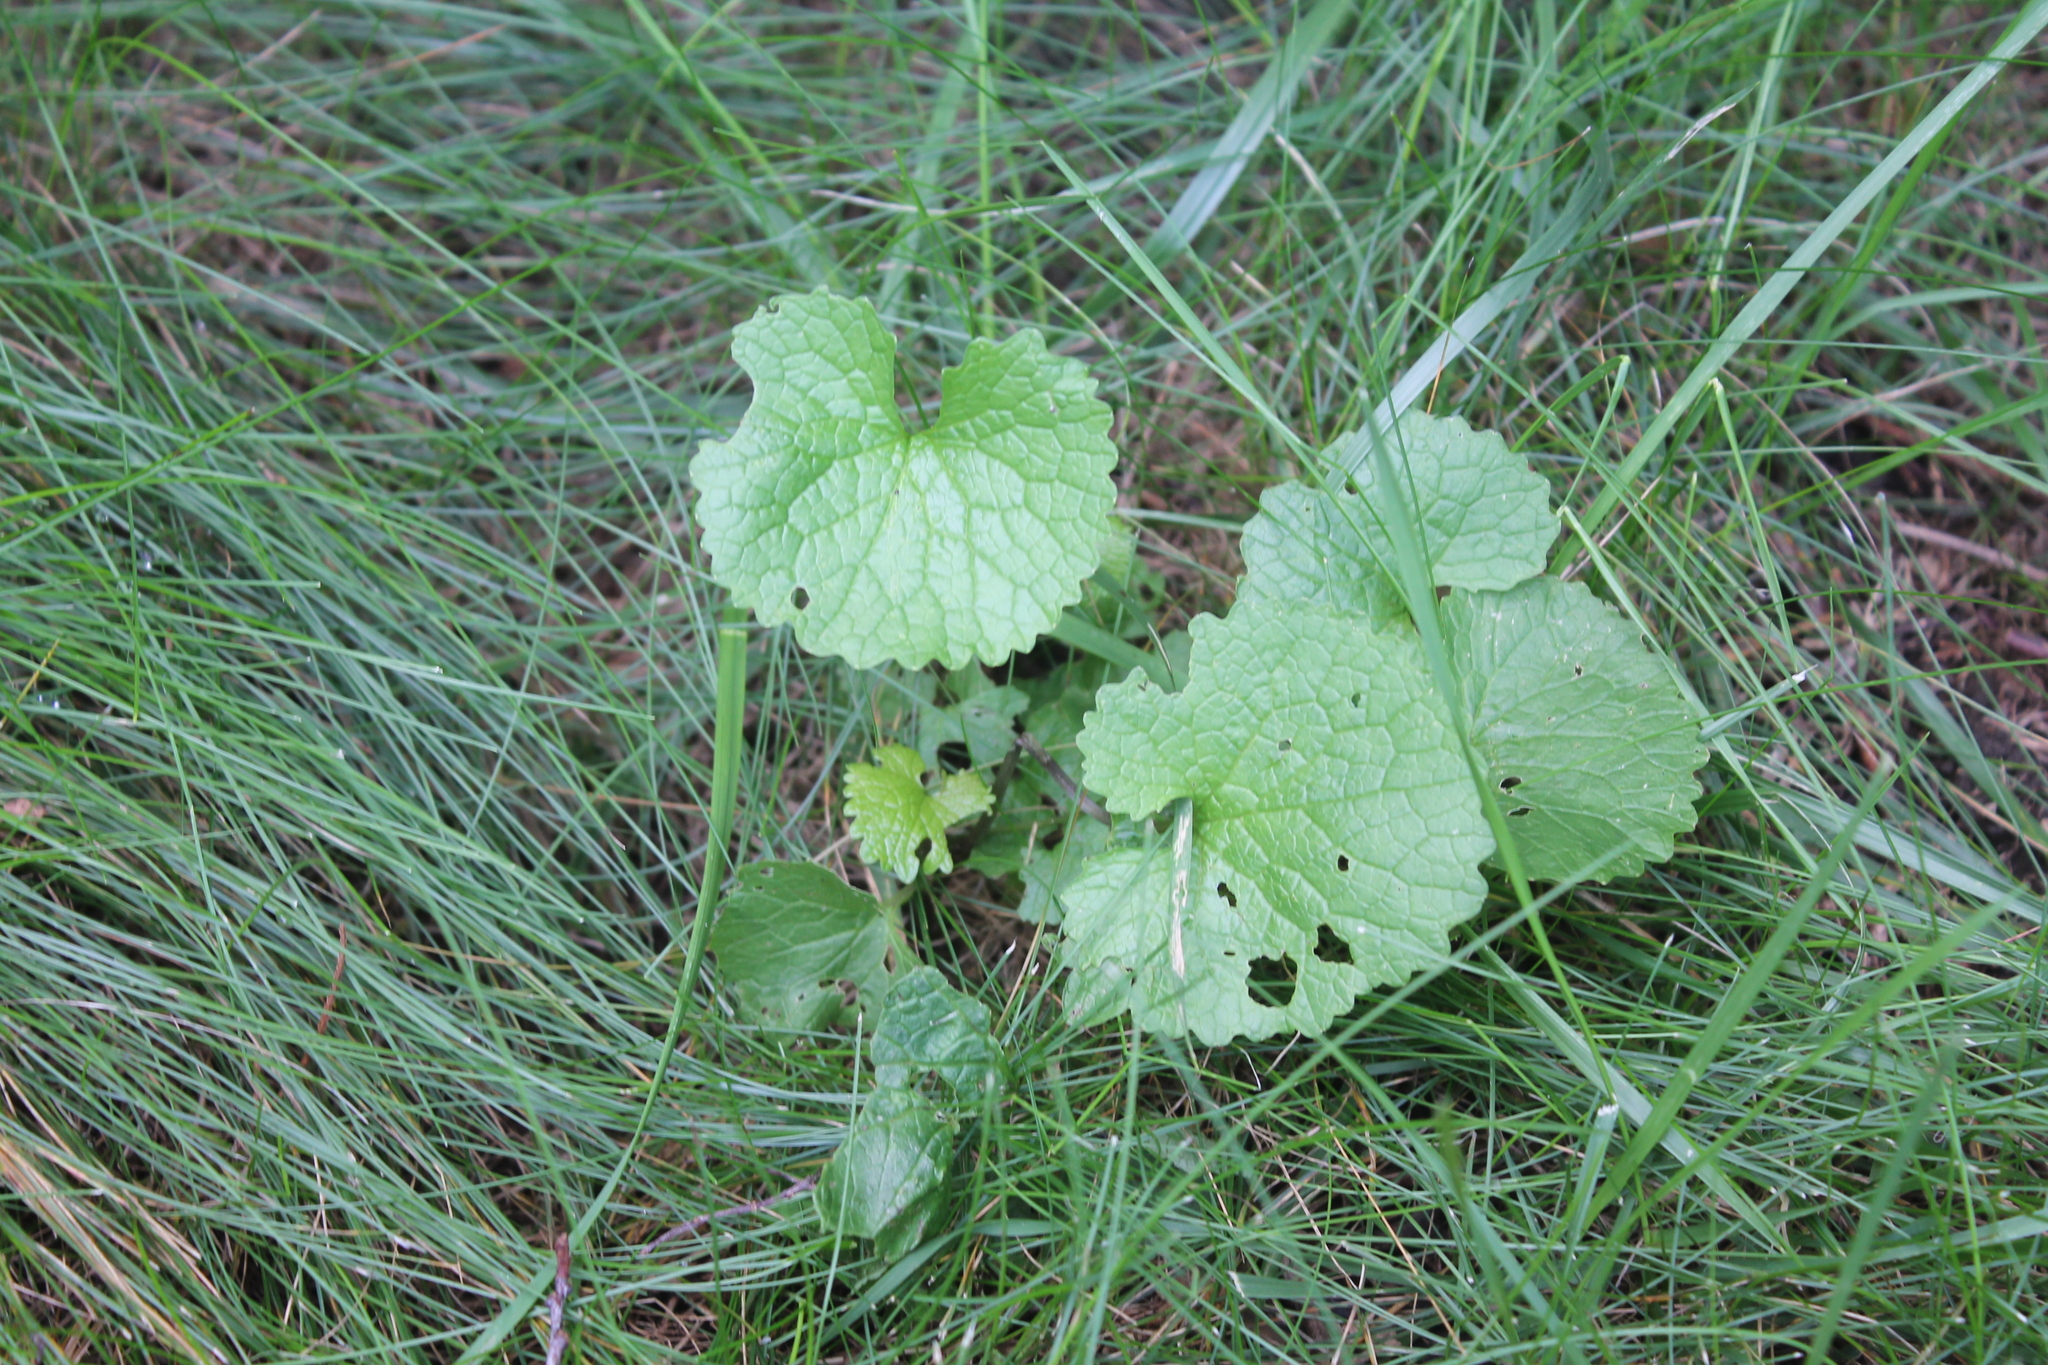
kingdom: Plantae
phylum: Tracheophyta
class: Magnoliopsida
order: Brassicales
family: Brassicaceae
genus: Alliaria
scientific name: Alliaria petiolata
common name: Garlic mustard
